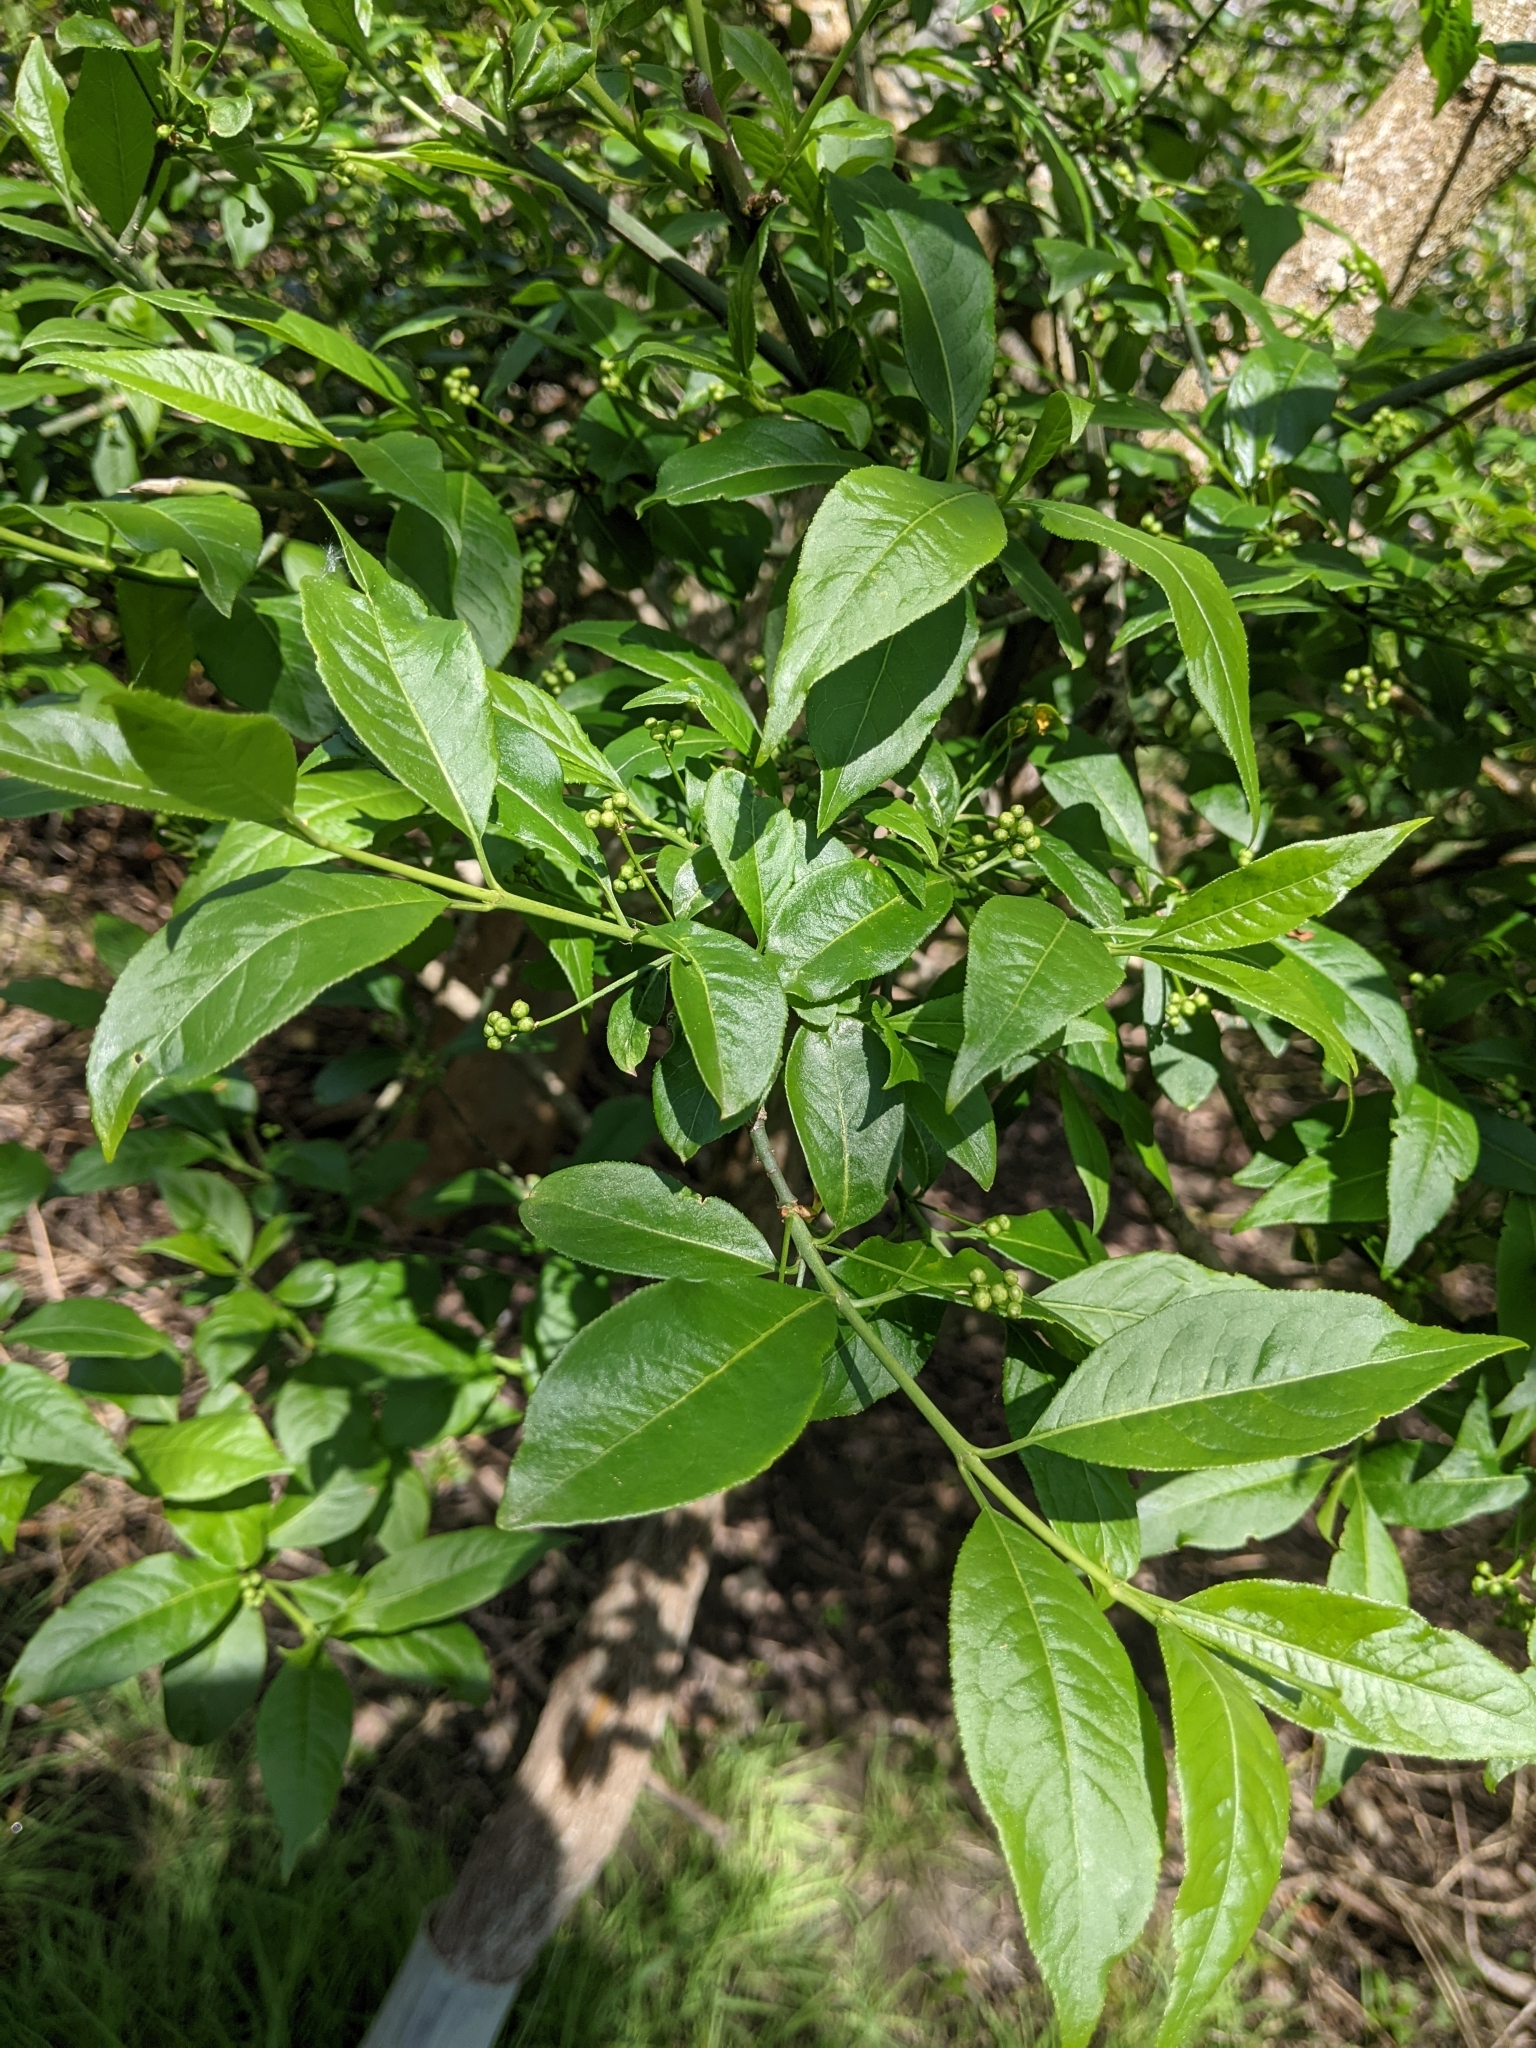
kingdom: Plantae
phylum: Tracheophyta
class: Magnoliopsida
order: Celastrales
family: Celastraceae
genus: Euonymus
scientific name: Euonymus europaeus
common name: Spindle
